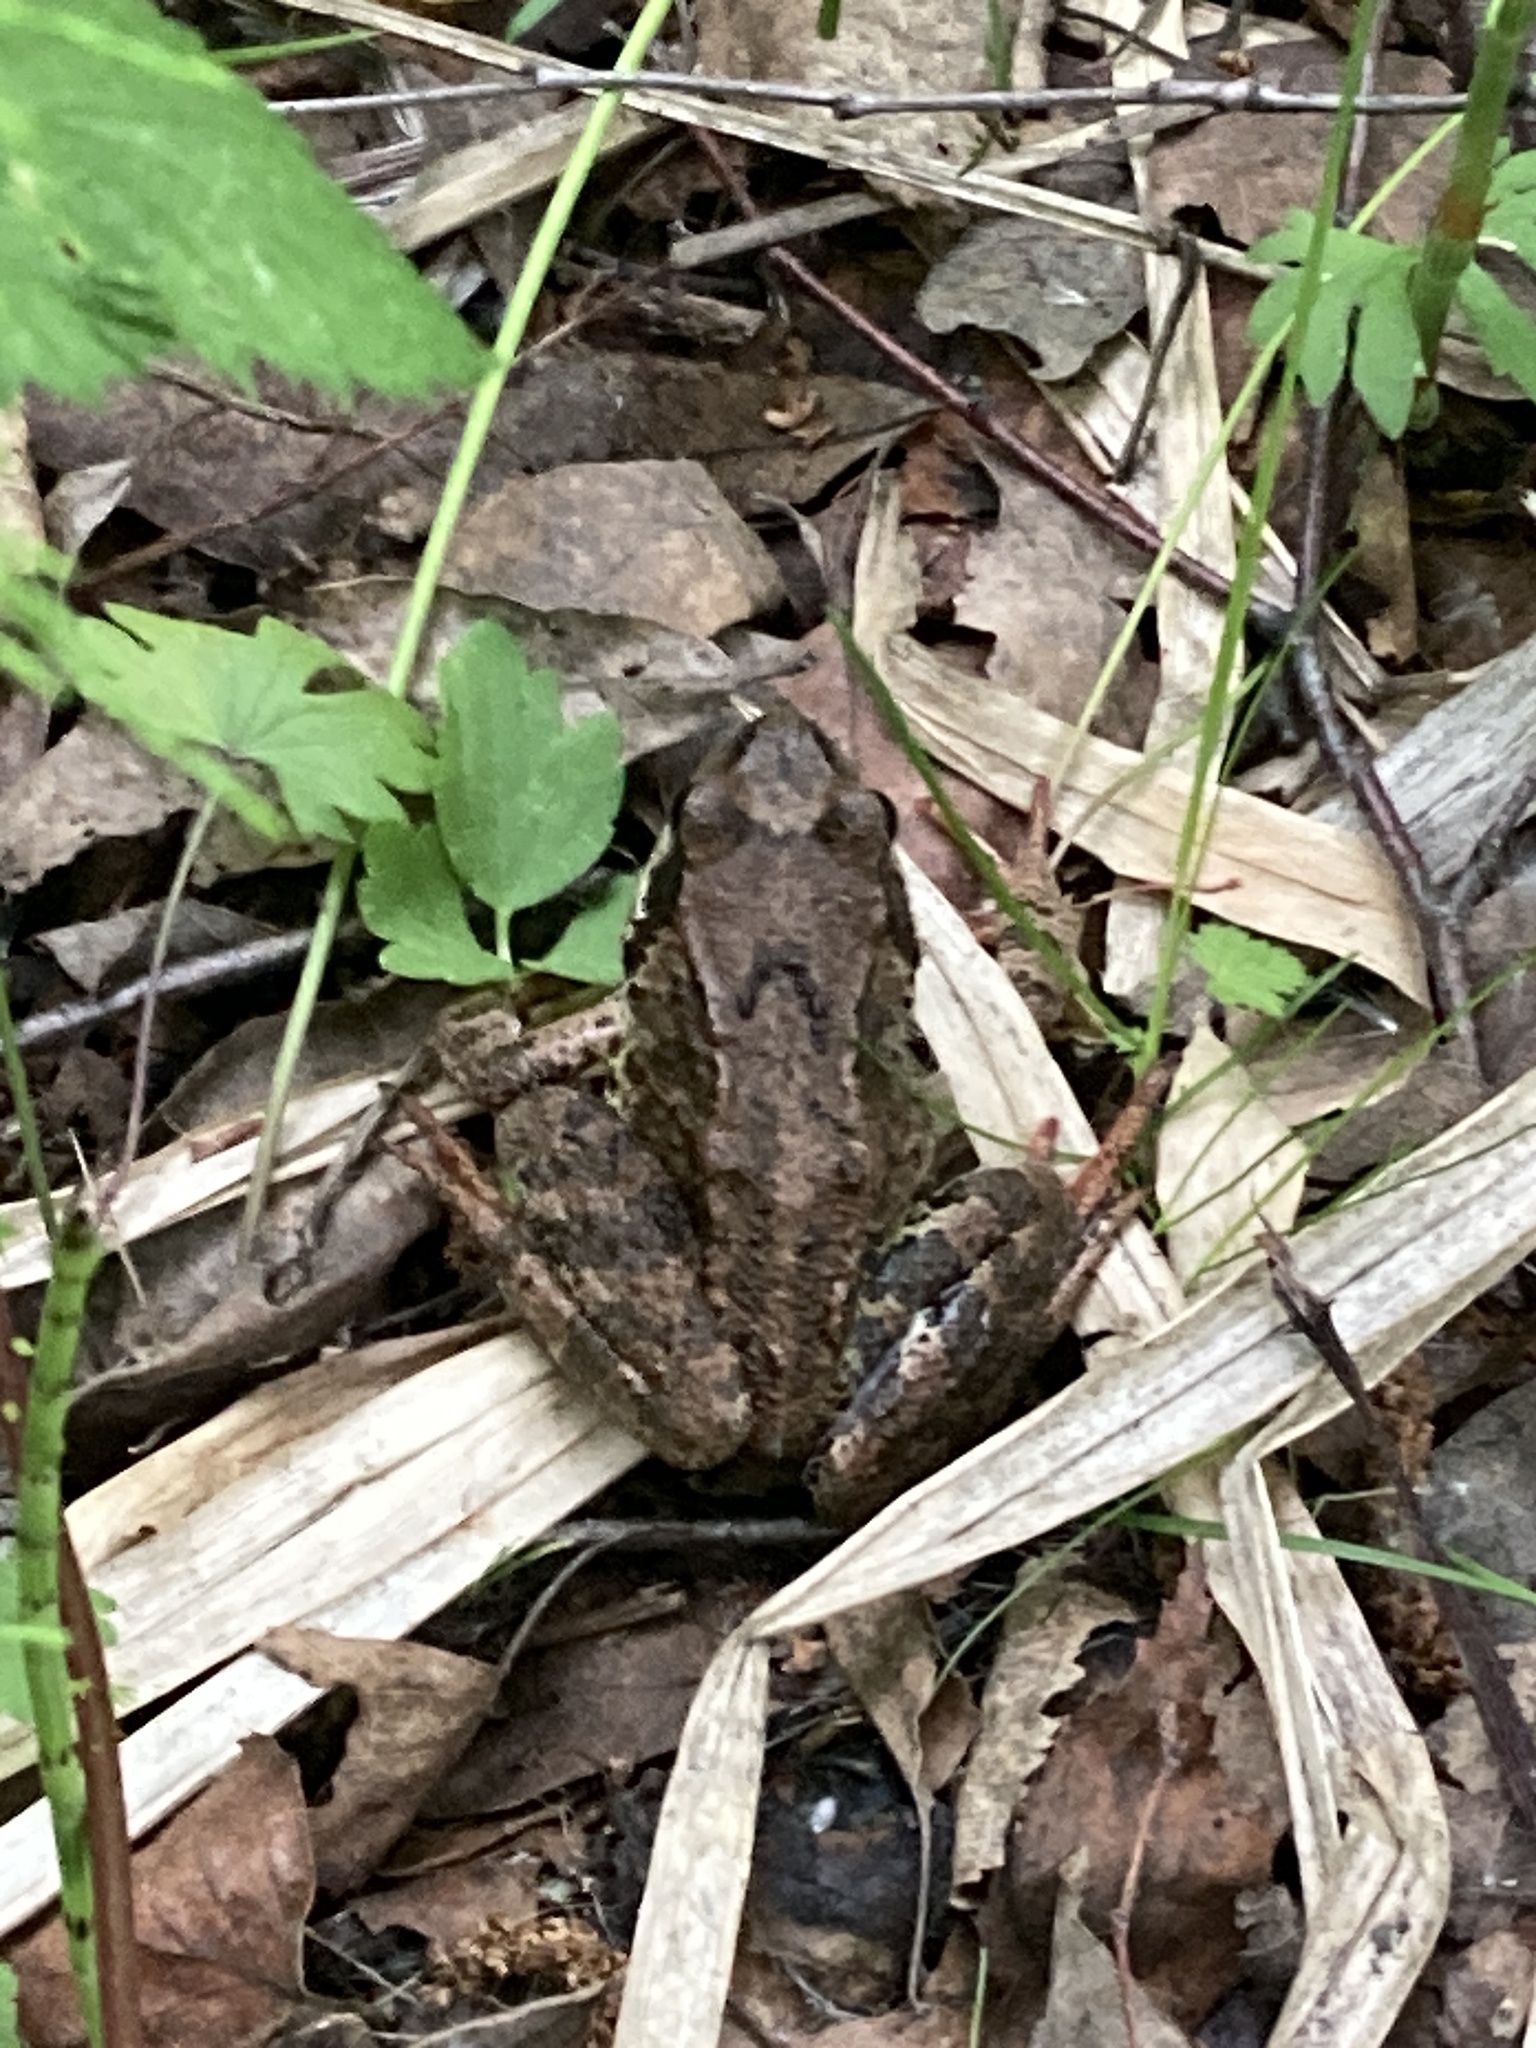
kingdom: Animalia
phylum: Chordata
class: Amphibia
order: Anura
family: Ranidae
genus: Rana
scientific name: Rana temporaria
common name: Common frog
